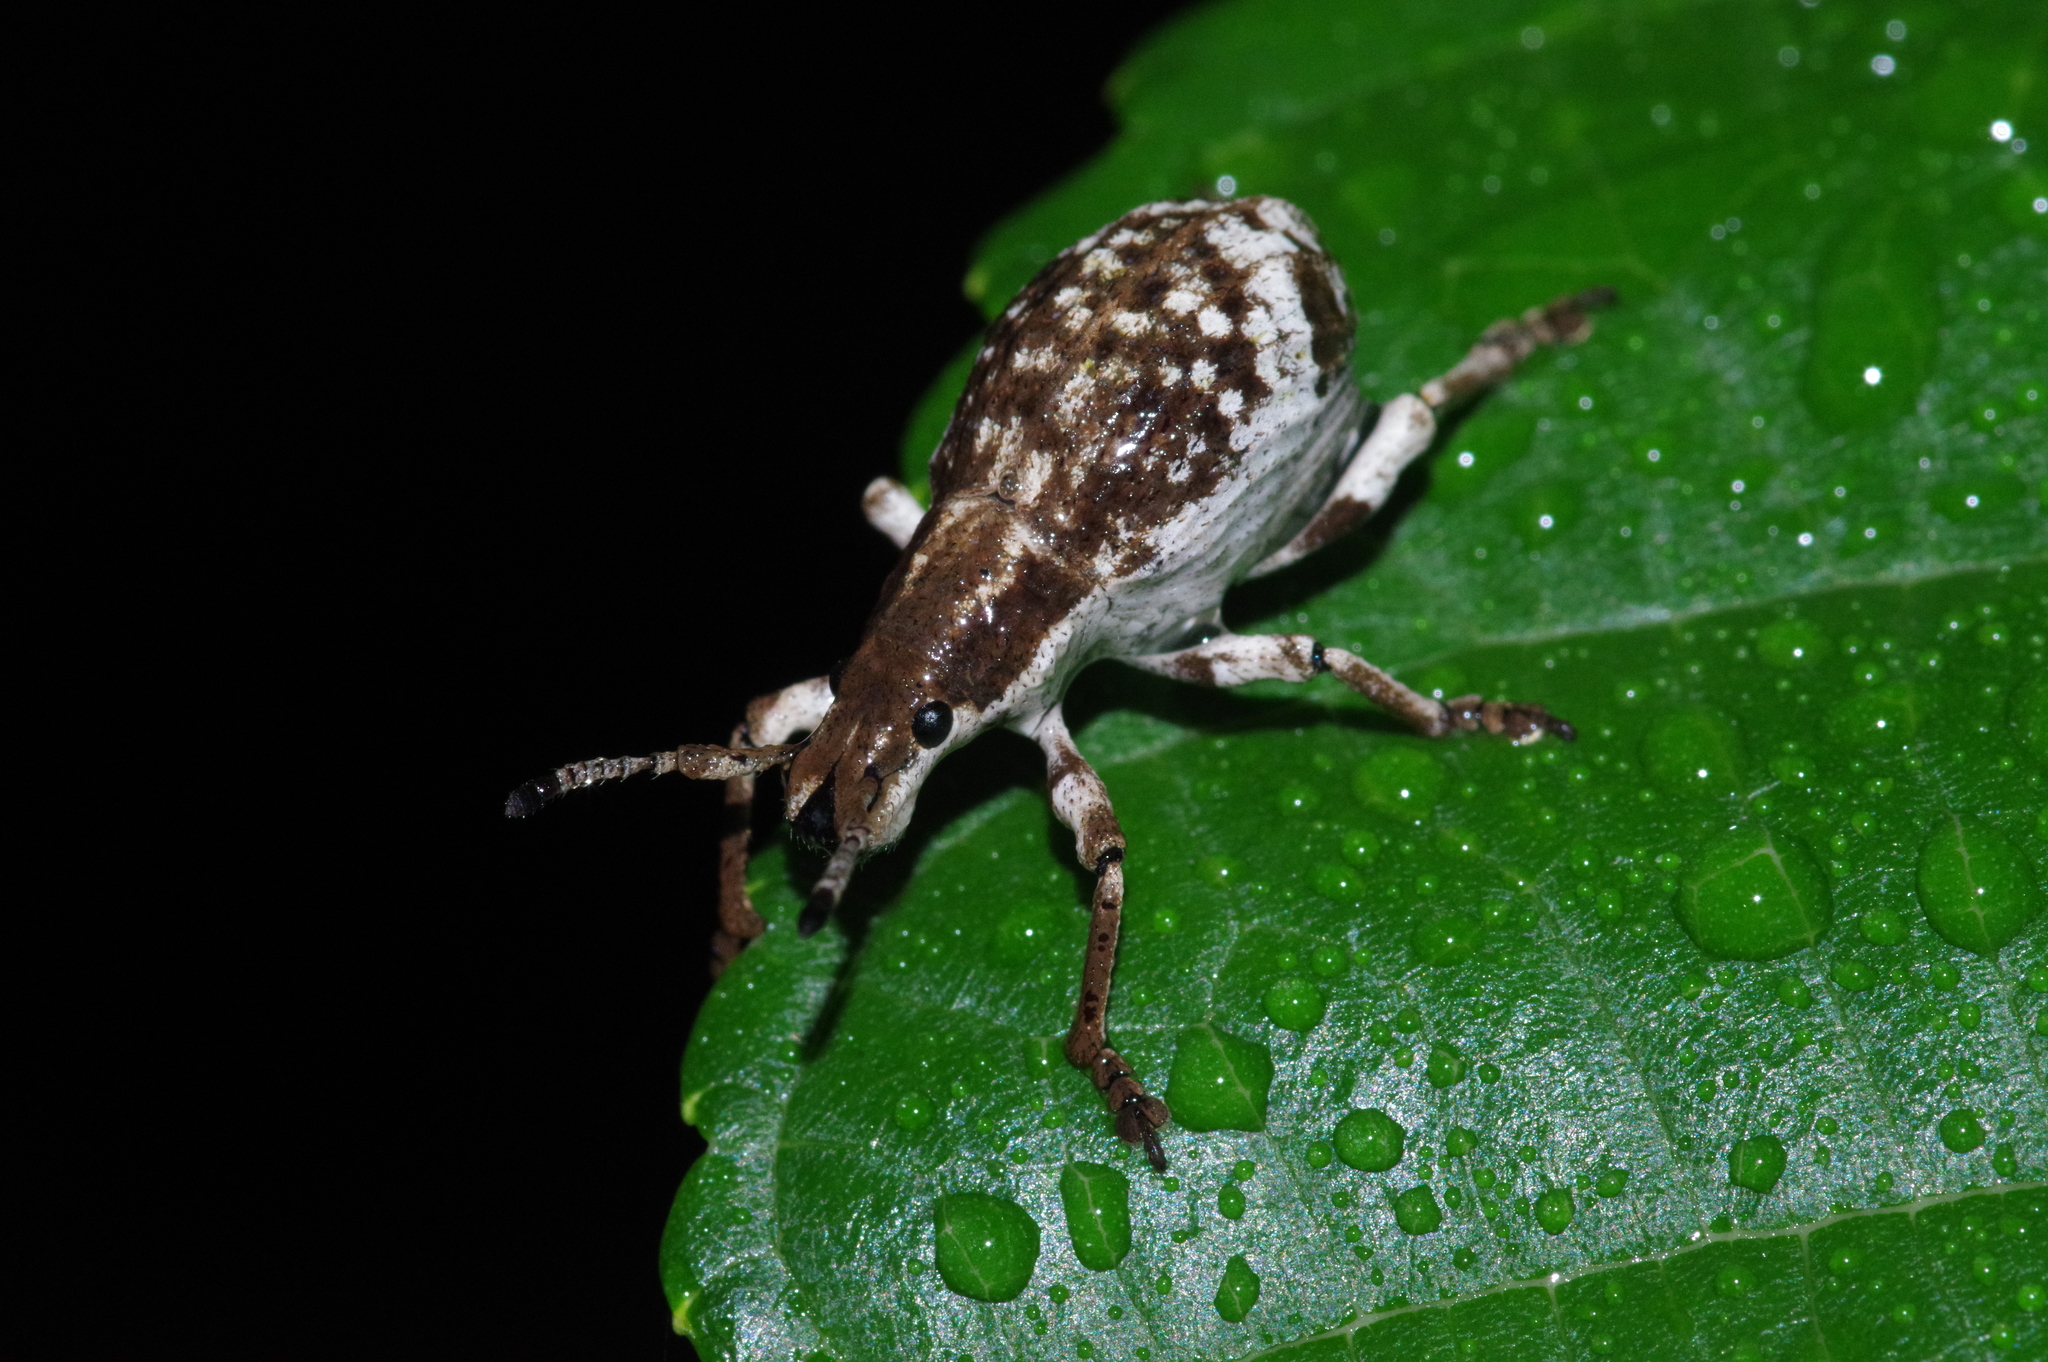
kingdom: Animalia
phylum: Arthropoda
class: Insecta
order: Coleoptera
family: Curculionidae
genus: Episomus
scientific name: Episomus mori
